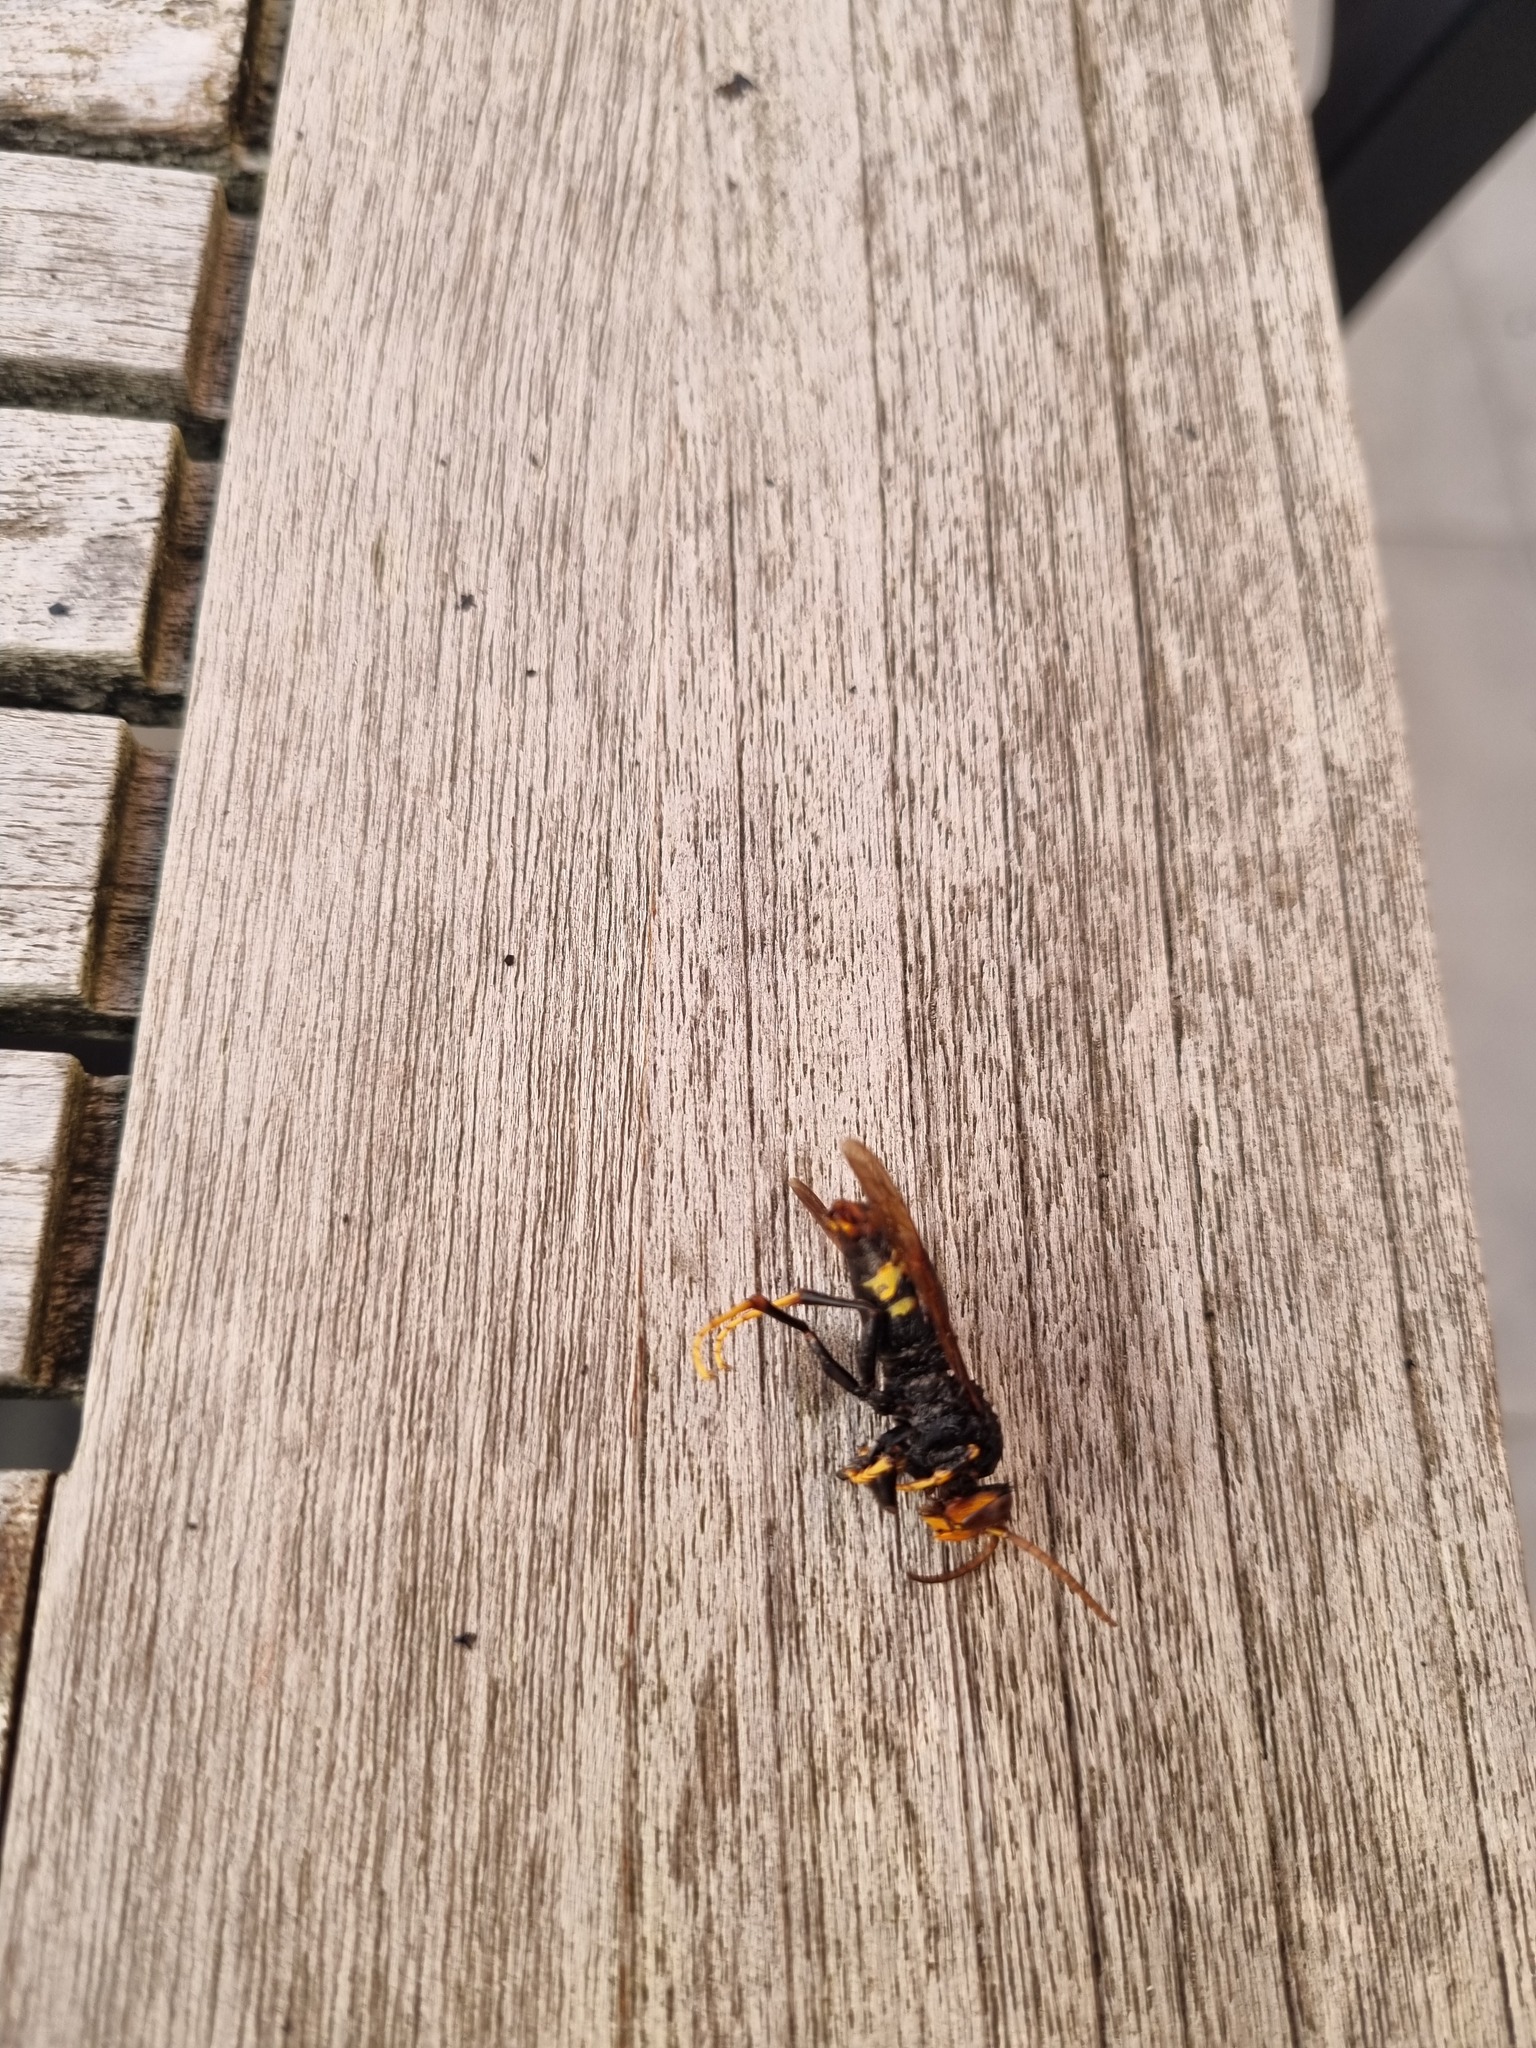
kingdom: Animalia
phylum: Arthropoda
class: Insecta
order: Hymenoptera
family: Vespidae
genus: Vespa
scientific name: Vespa velutina
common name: Asian hornet
